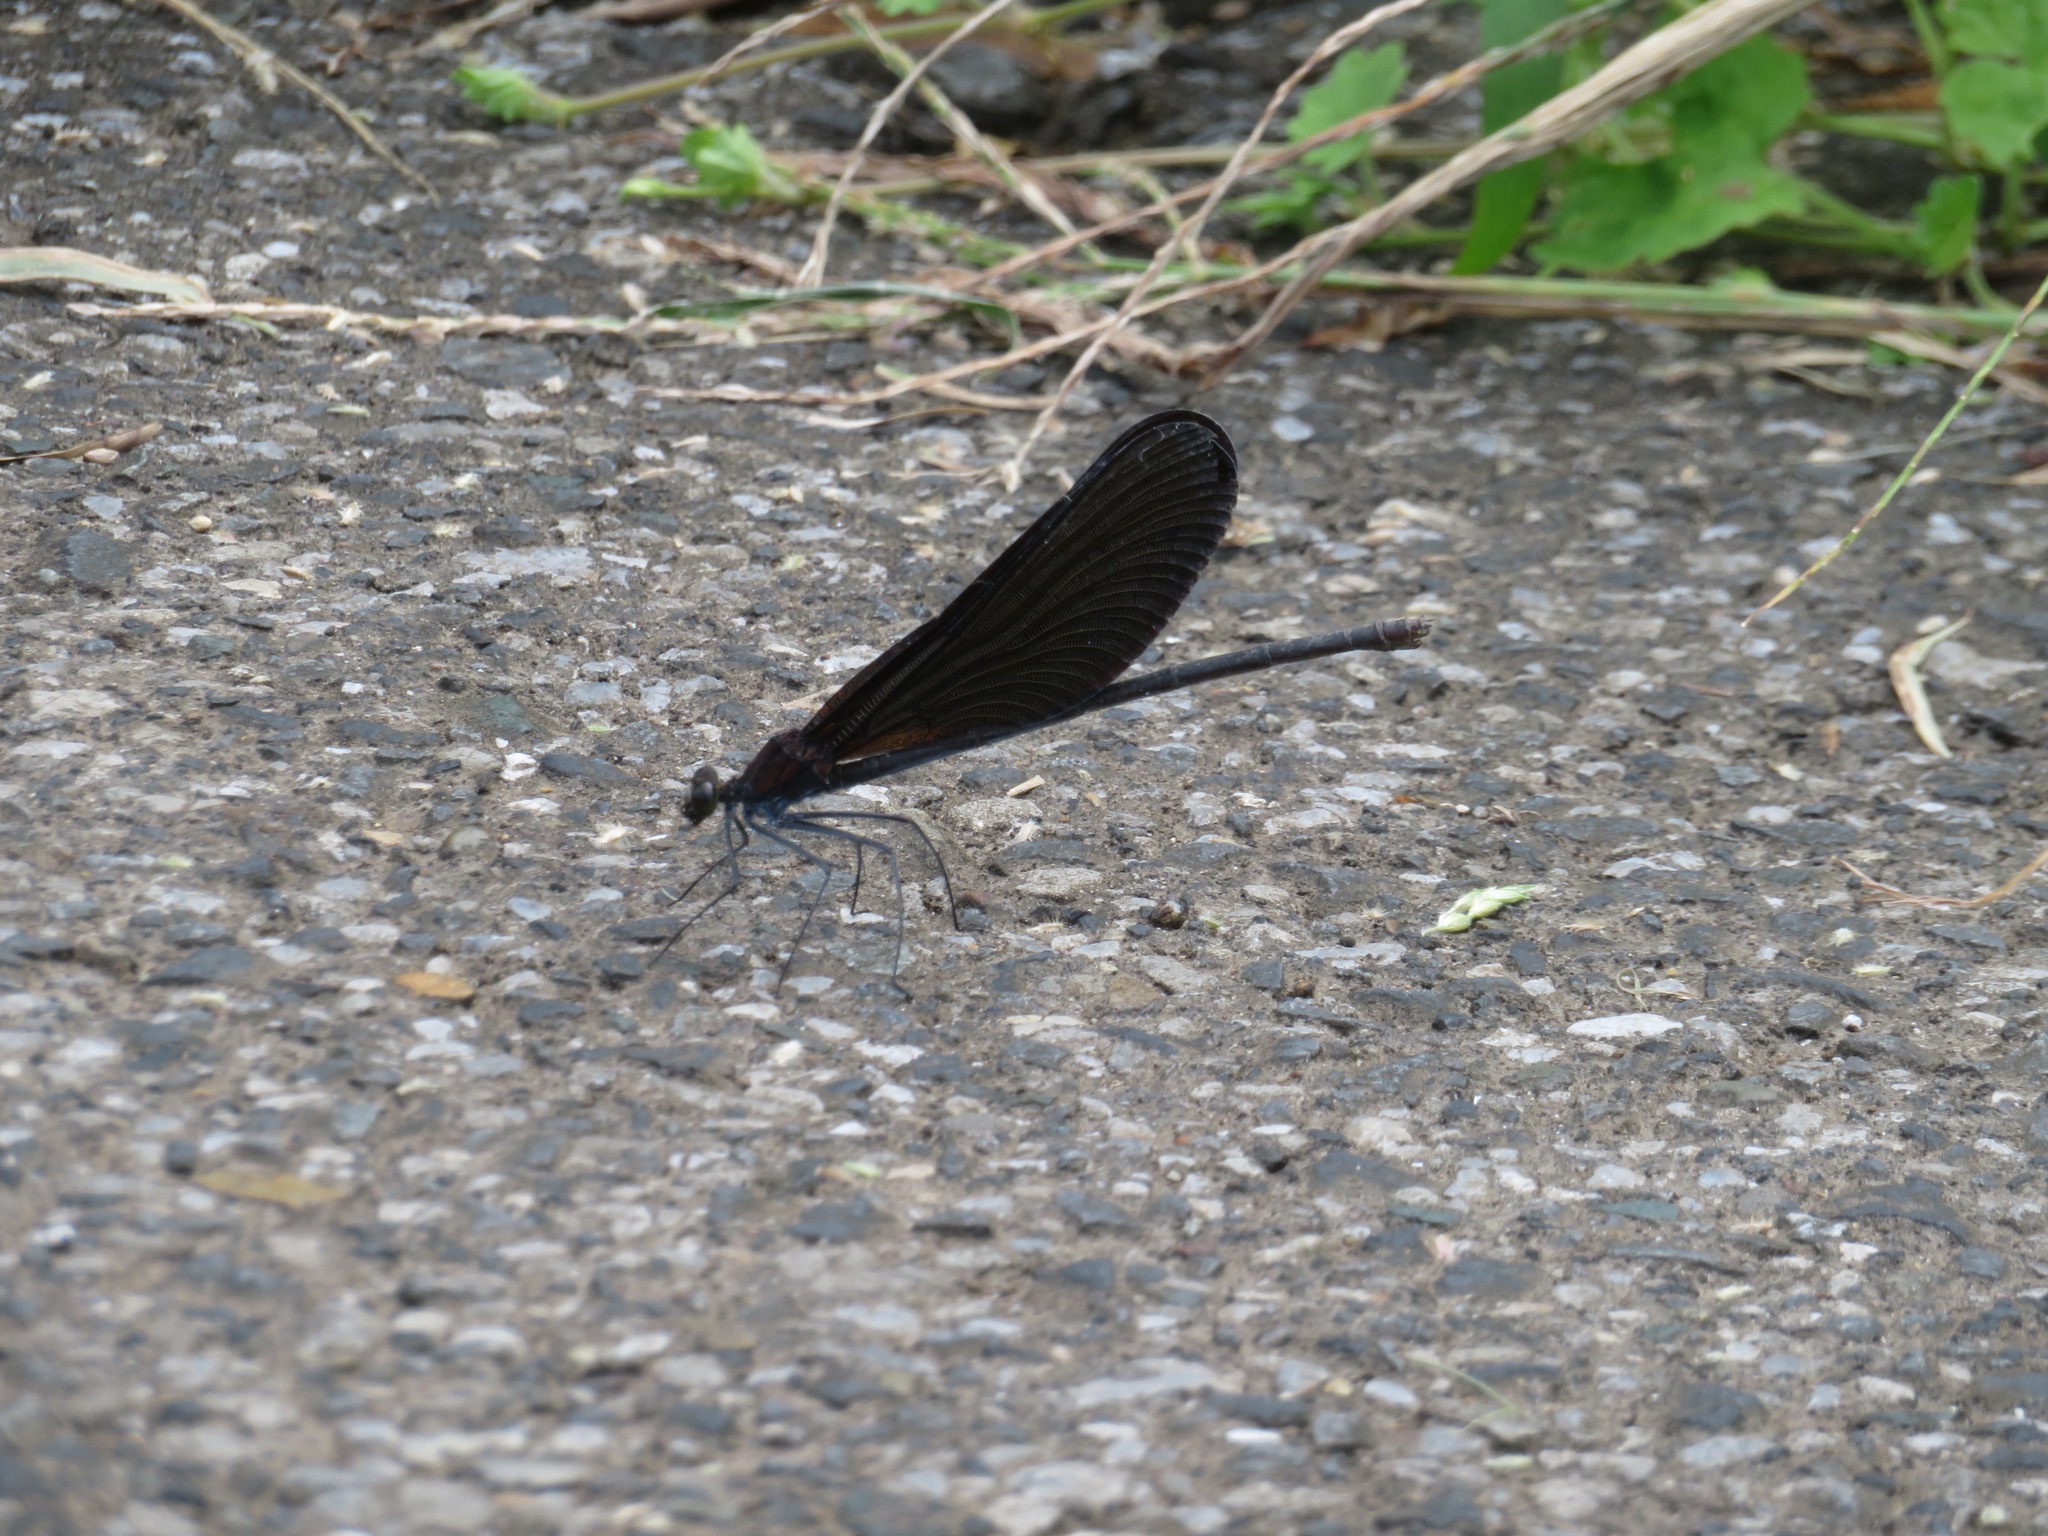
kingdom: Animalia
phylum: Arthropoda
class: Insecta
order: Odonata
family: Calopterygidae
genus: Atrocalopteryx
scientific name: Atrocalopteryx atrata
